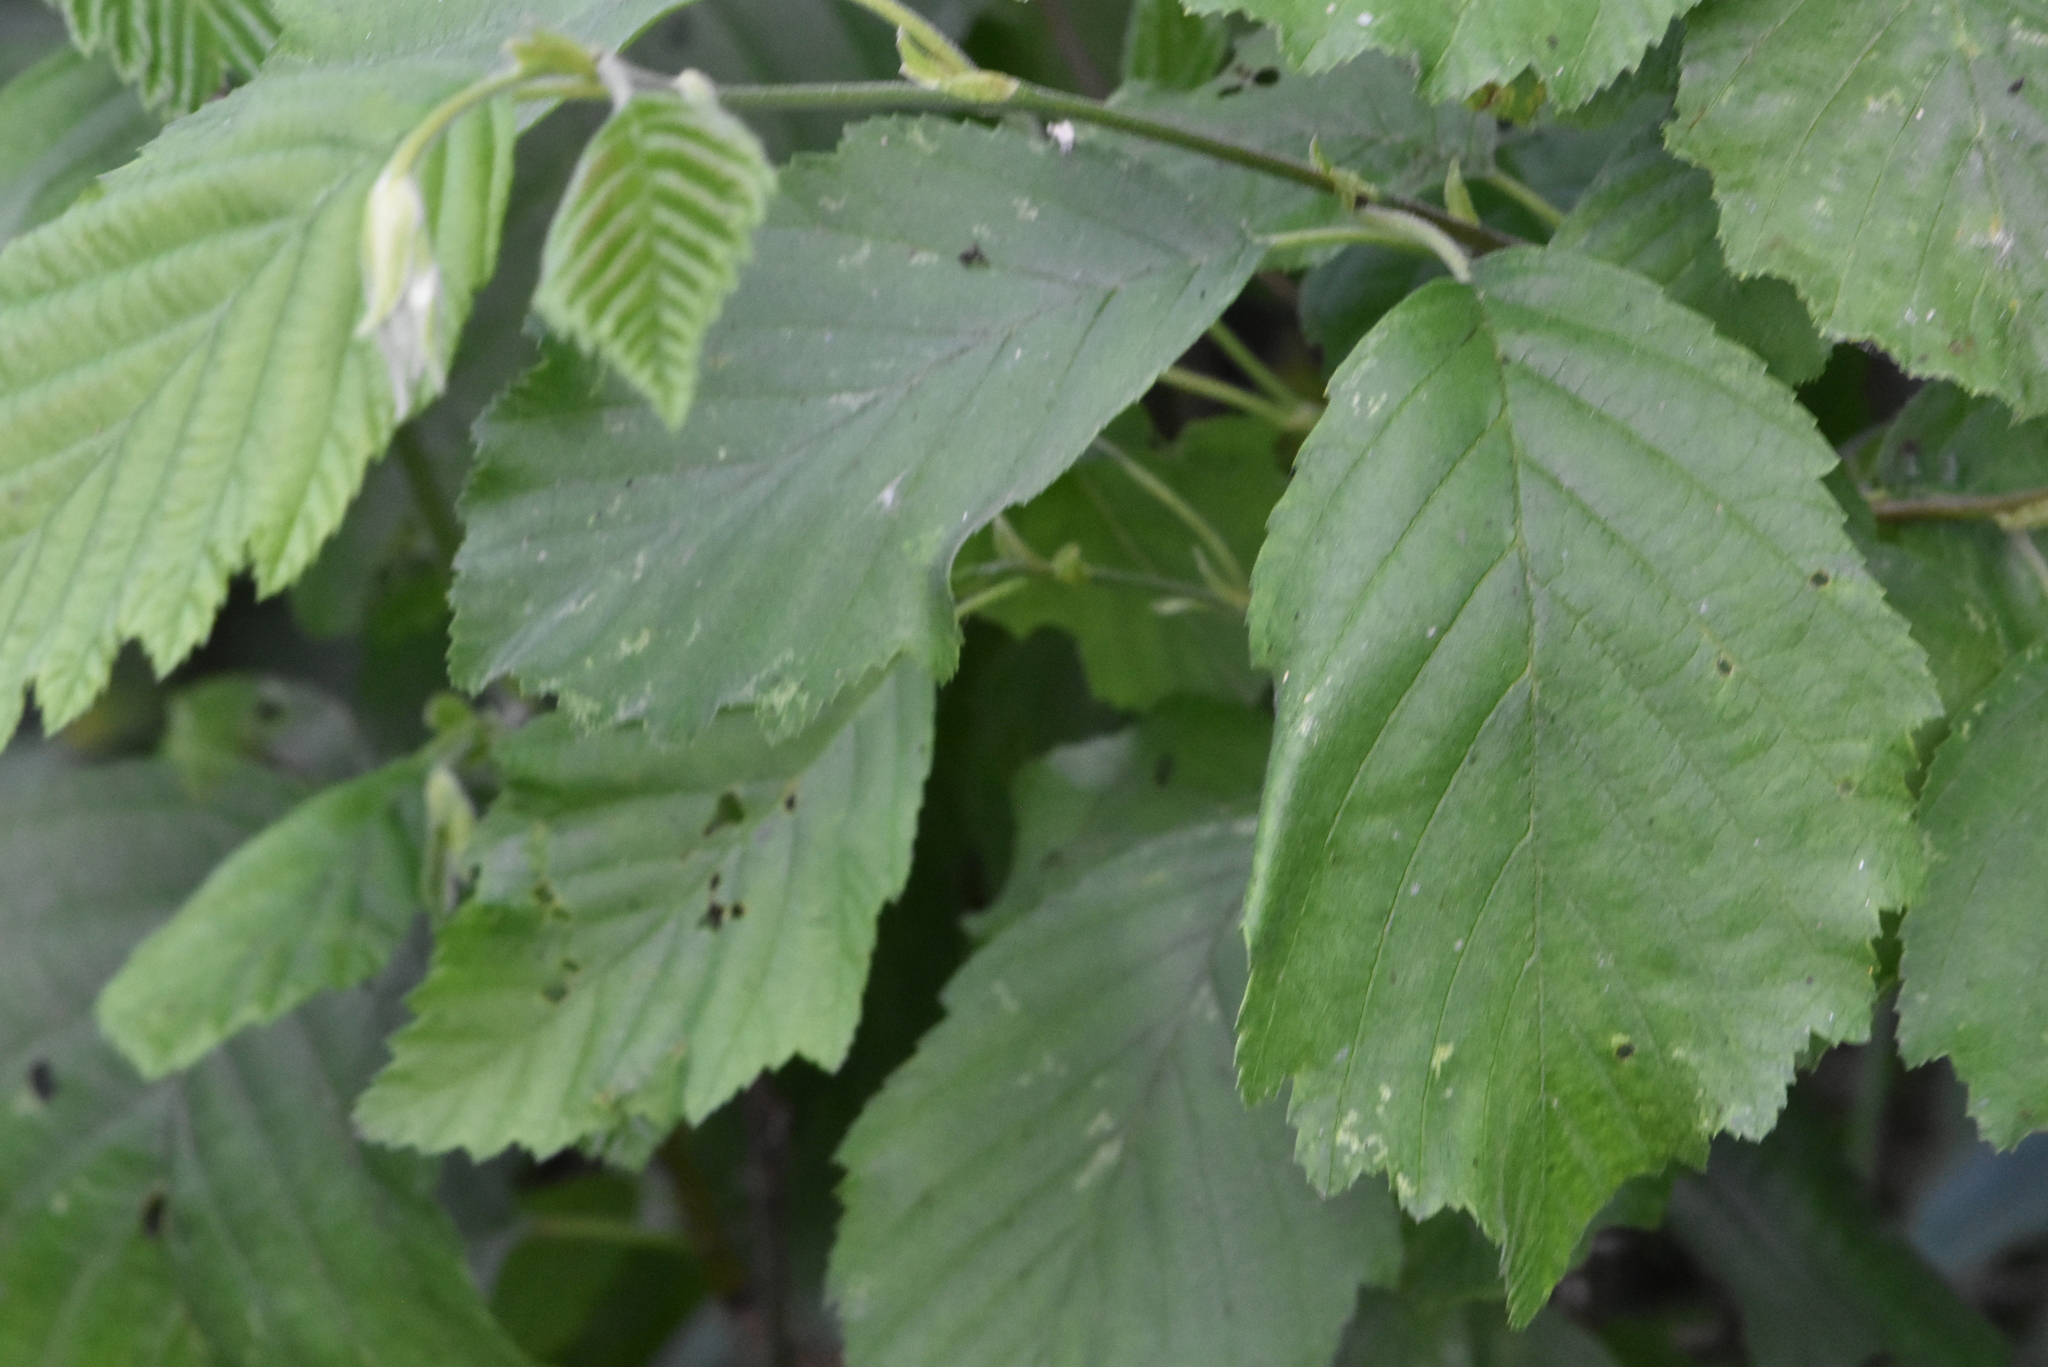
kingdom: Plantae
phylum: Tracheophyta
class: Magnoliopsida
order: Fagales
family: Betulaceae
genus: Alnus
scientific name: Alnus incana
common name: Grey alder
